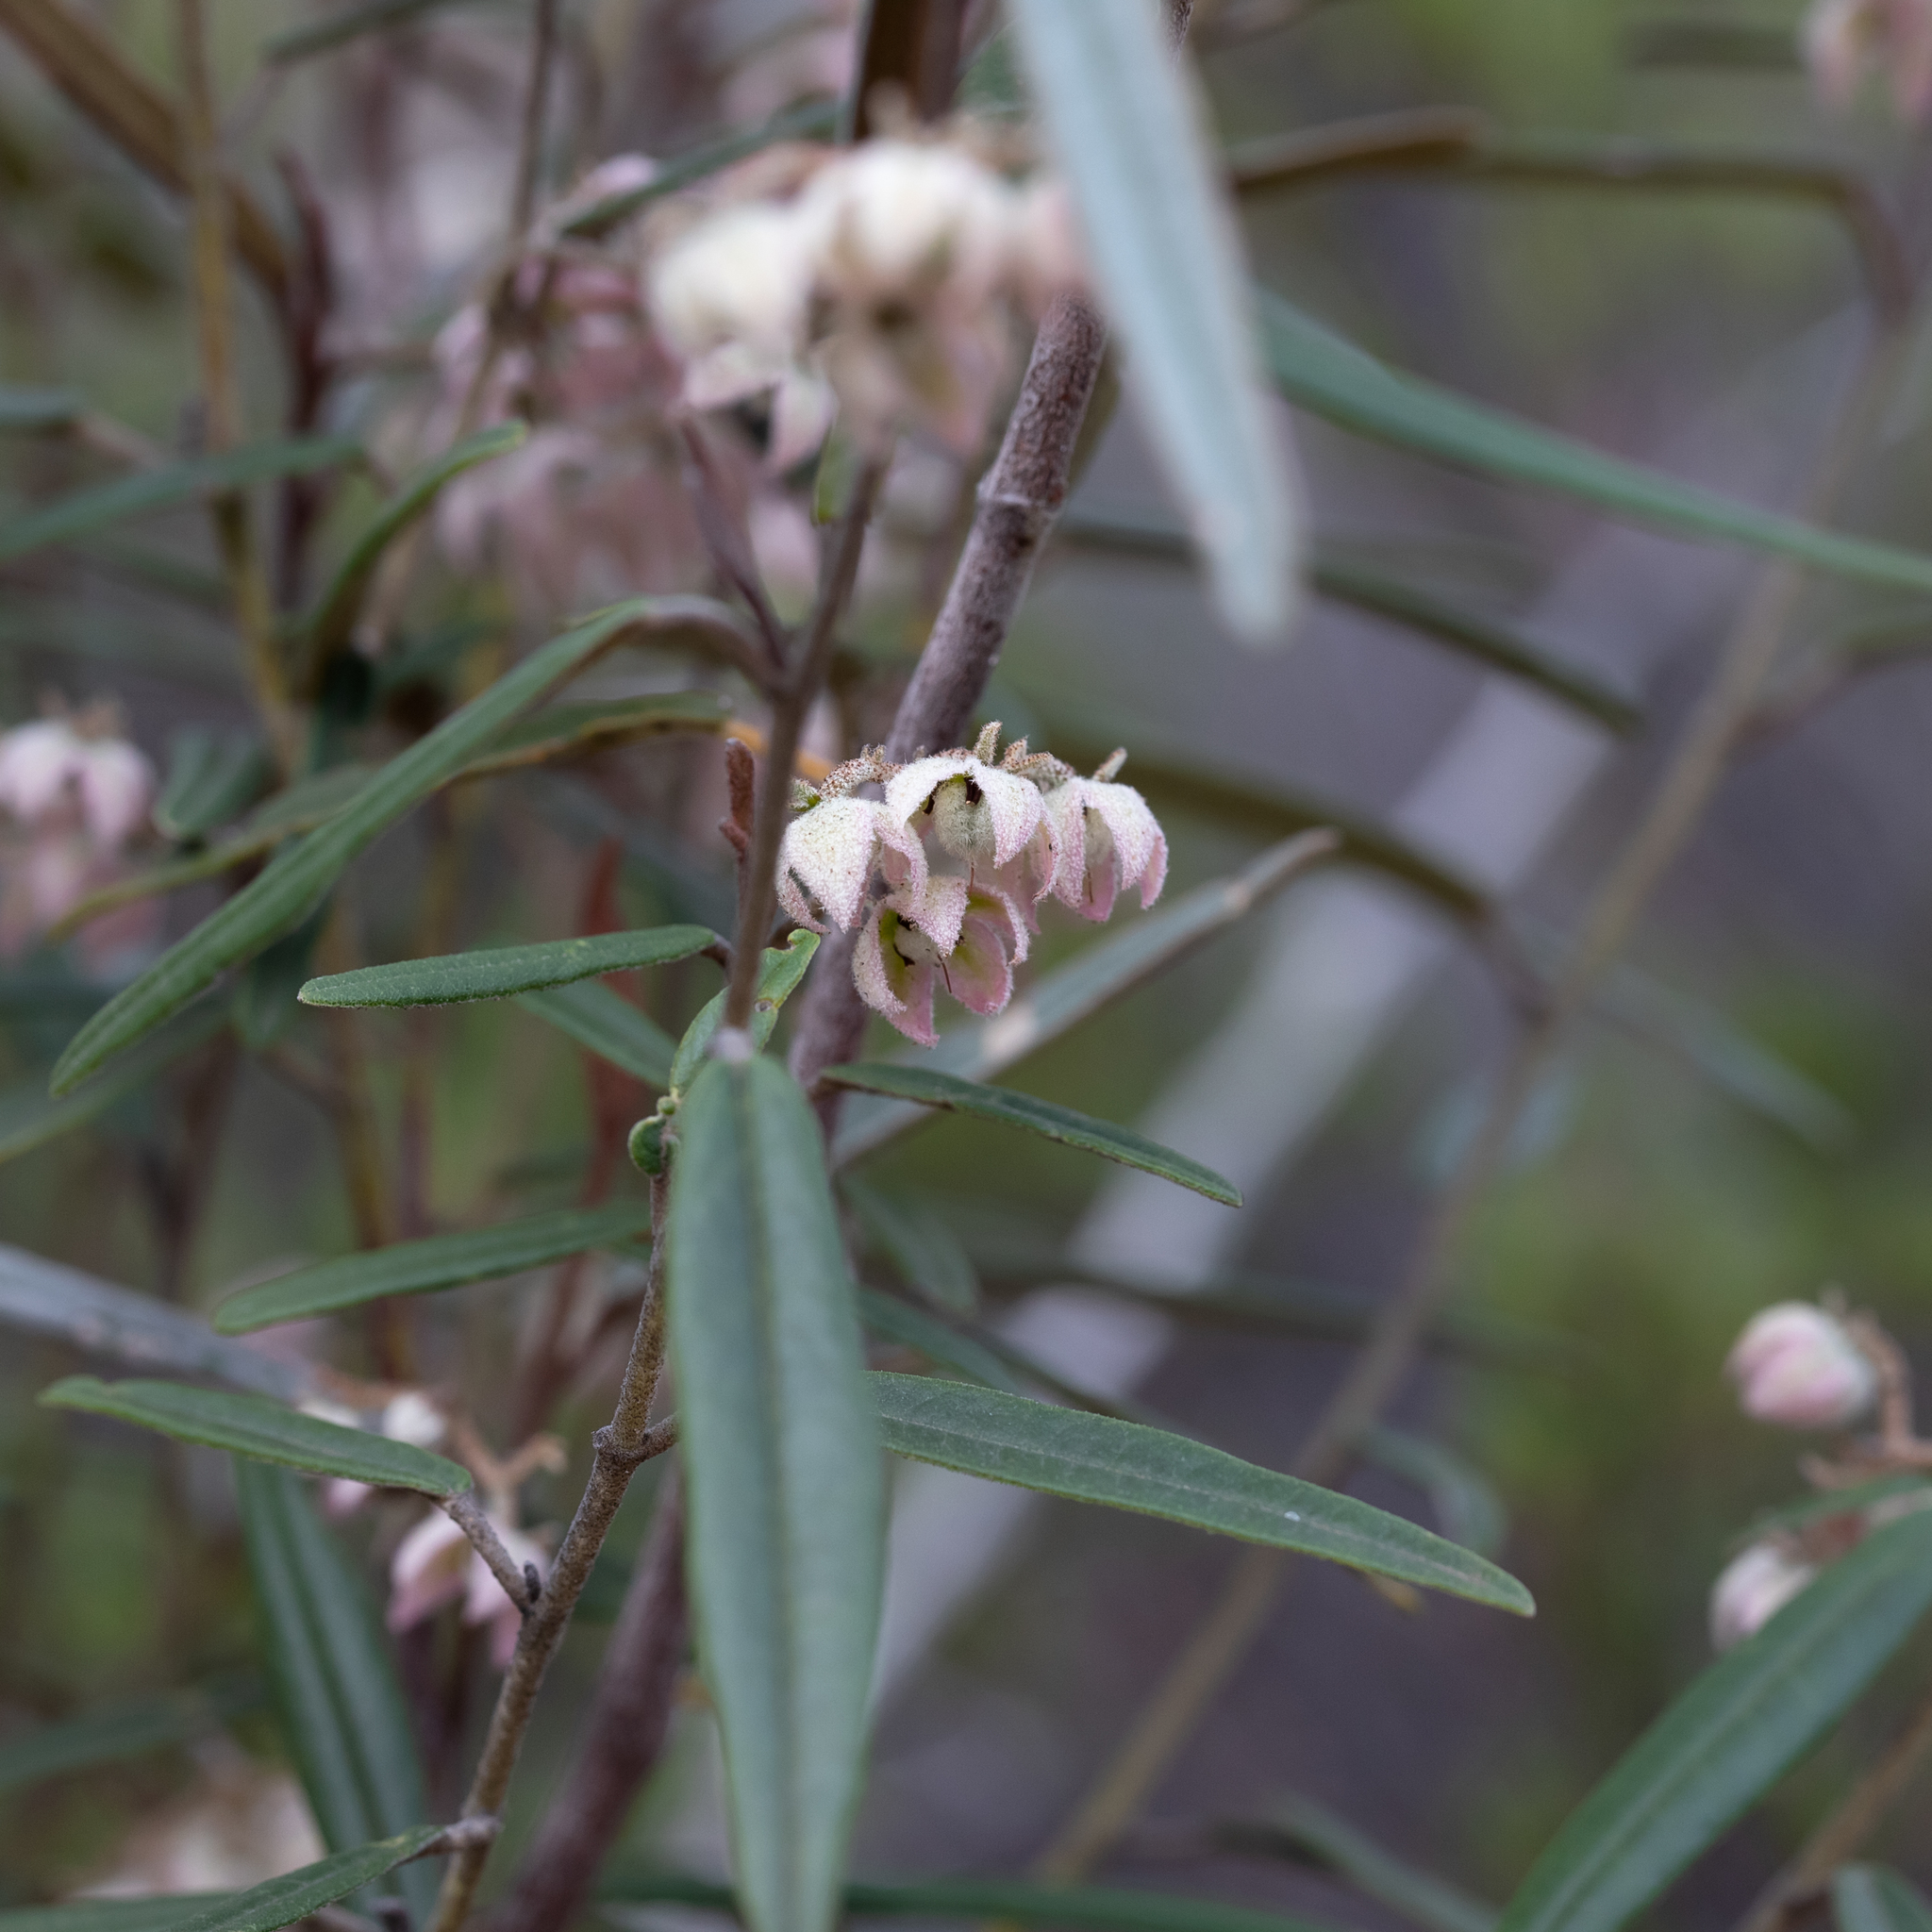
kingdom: Plantae
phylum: Tracheophyta
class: Magnoliopsida
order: Malvales
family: Malvaceae
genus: Lasiopetalum
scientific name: Lasiopetalum behrii
